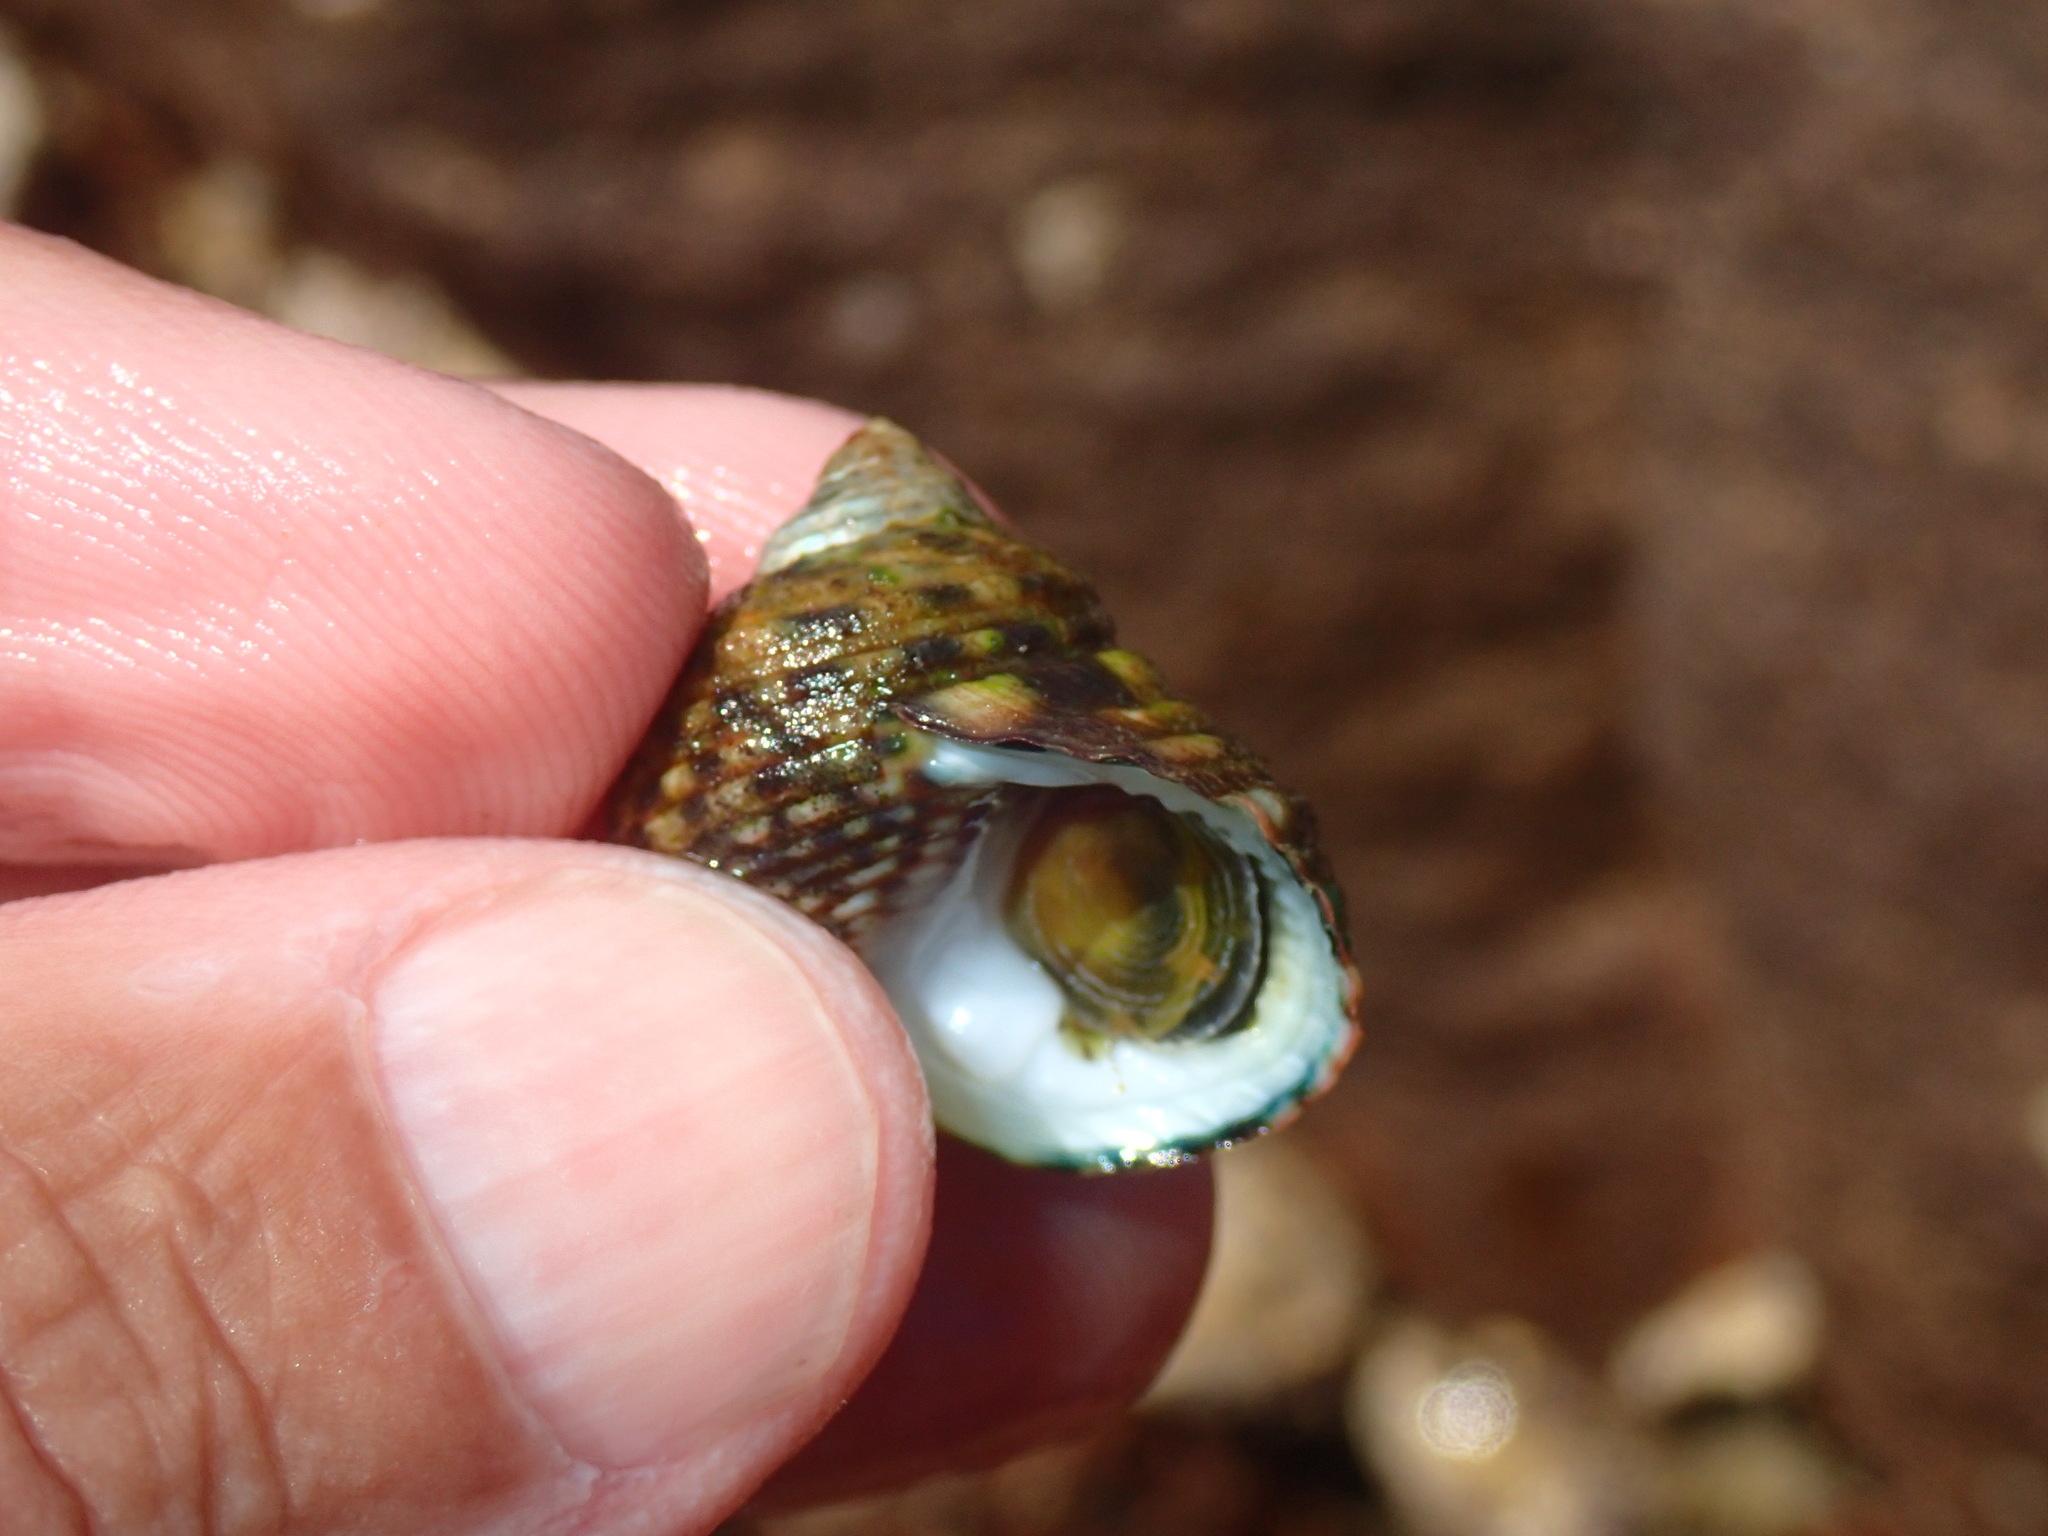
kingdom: Animalia
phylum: Mollusca
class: Gastropoda
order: Trochida
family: Trochidae
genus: Monodonta
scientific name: Monodonta australis
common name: Toothed topshell
